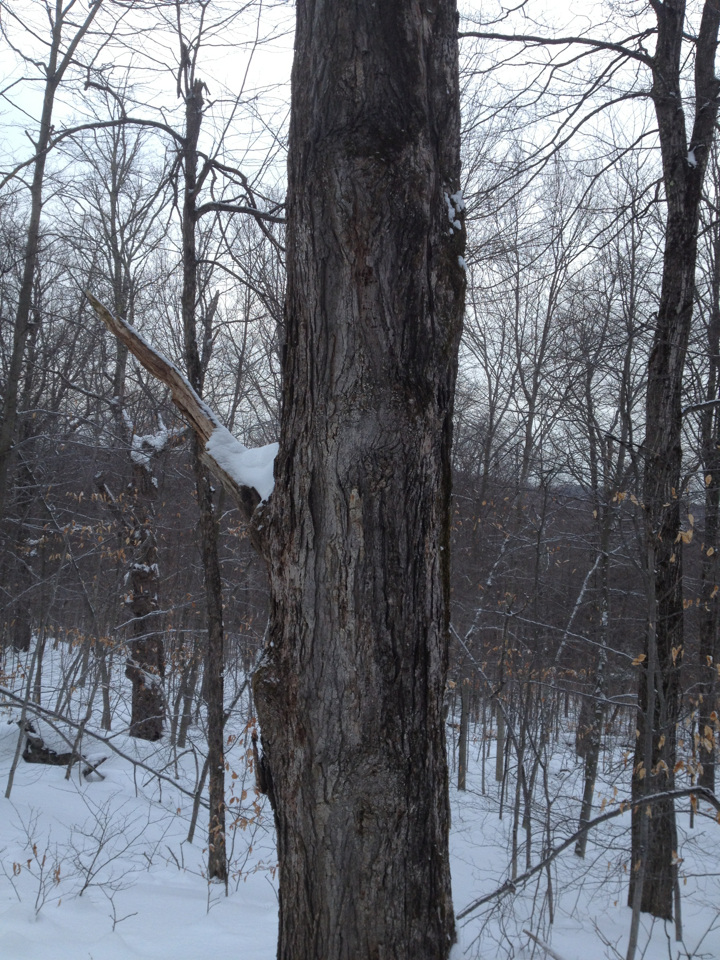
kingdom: Plantae
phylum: Tracheophyta
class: Magnoliopsida
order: Sapindales
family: Sapindaceae
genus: Acer
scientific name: Acer saccharum
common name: Sugar maple
